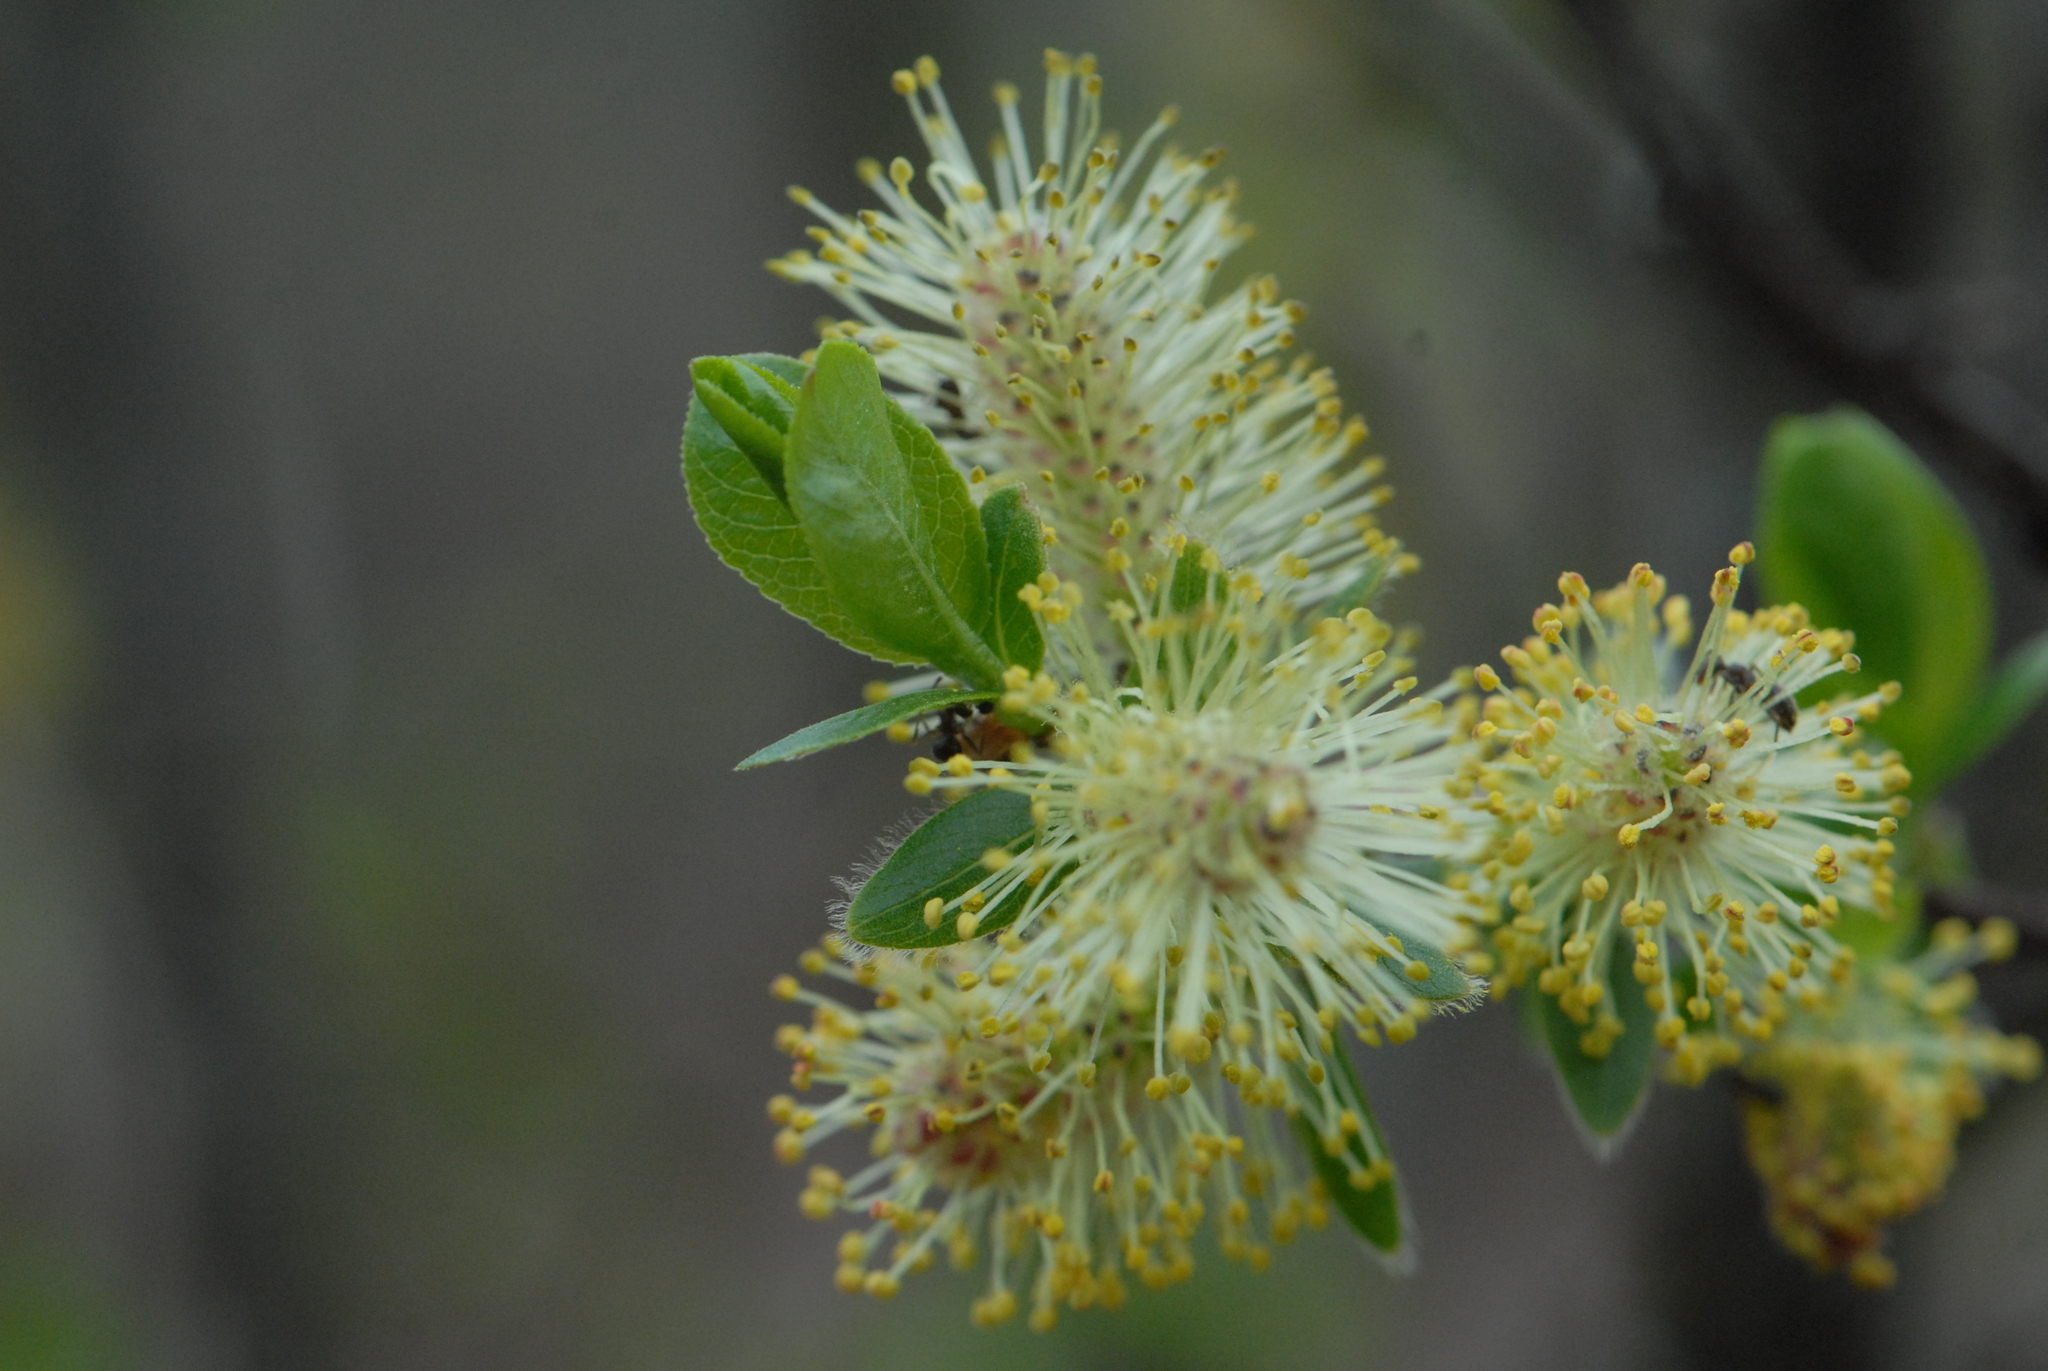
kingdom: Plantae
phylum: Tracheophyta
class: Magnoliopsida
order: Malpighiales
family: Salicaceae
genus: Salix
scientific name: Salix myrsinifolia
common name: Dark-leaved willow
